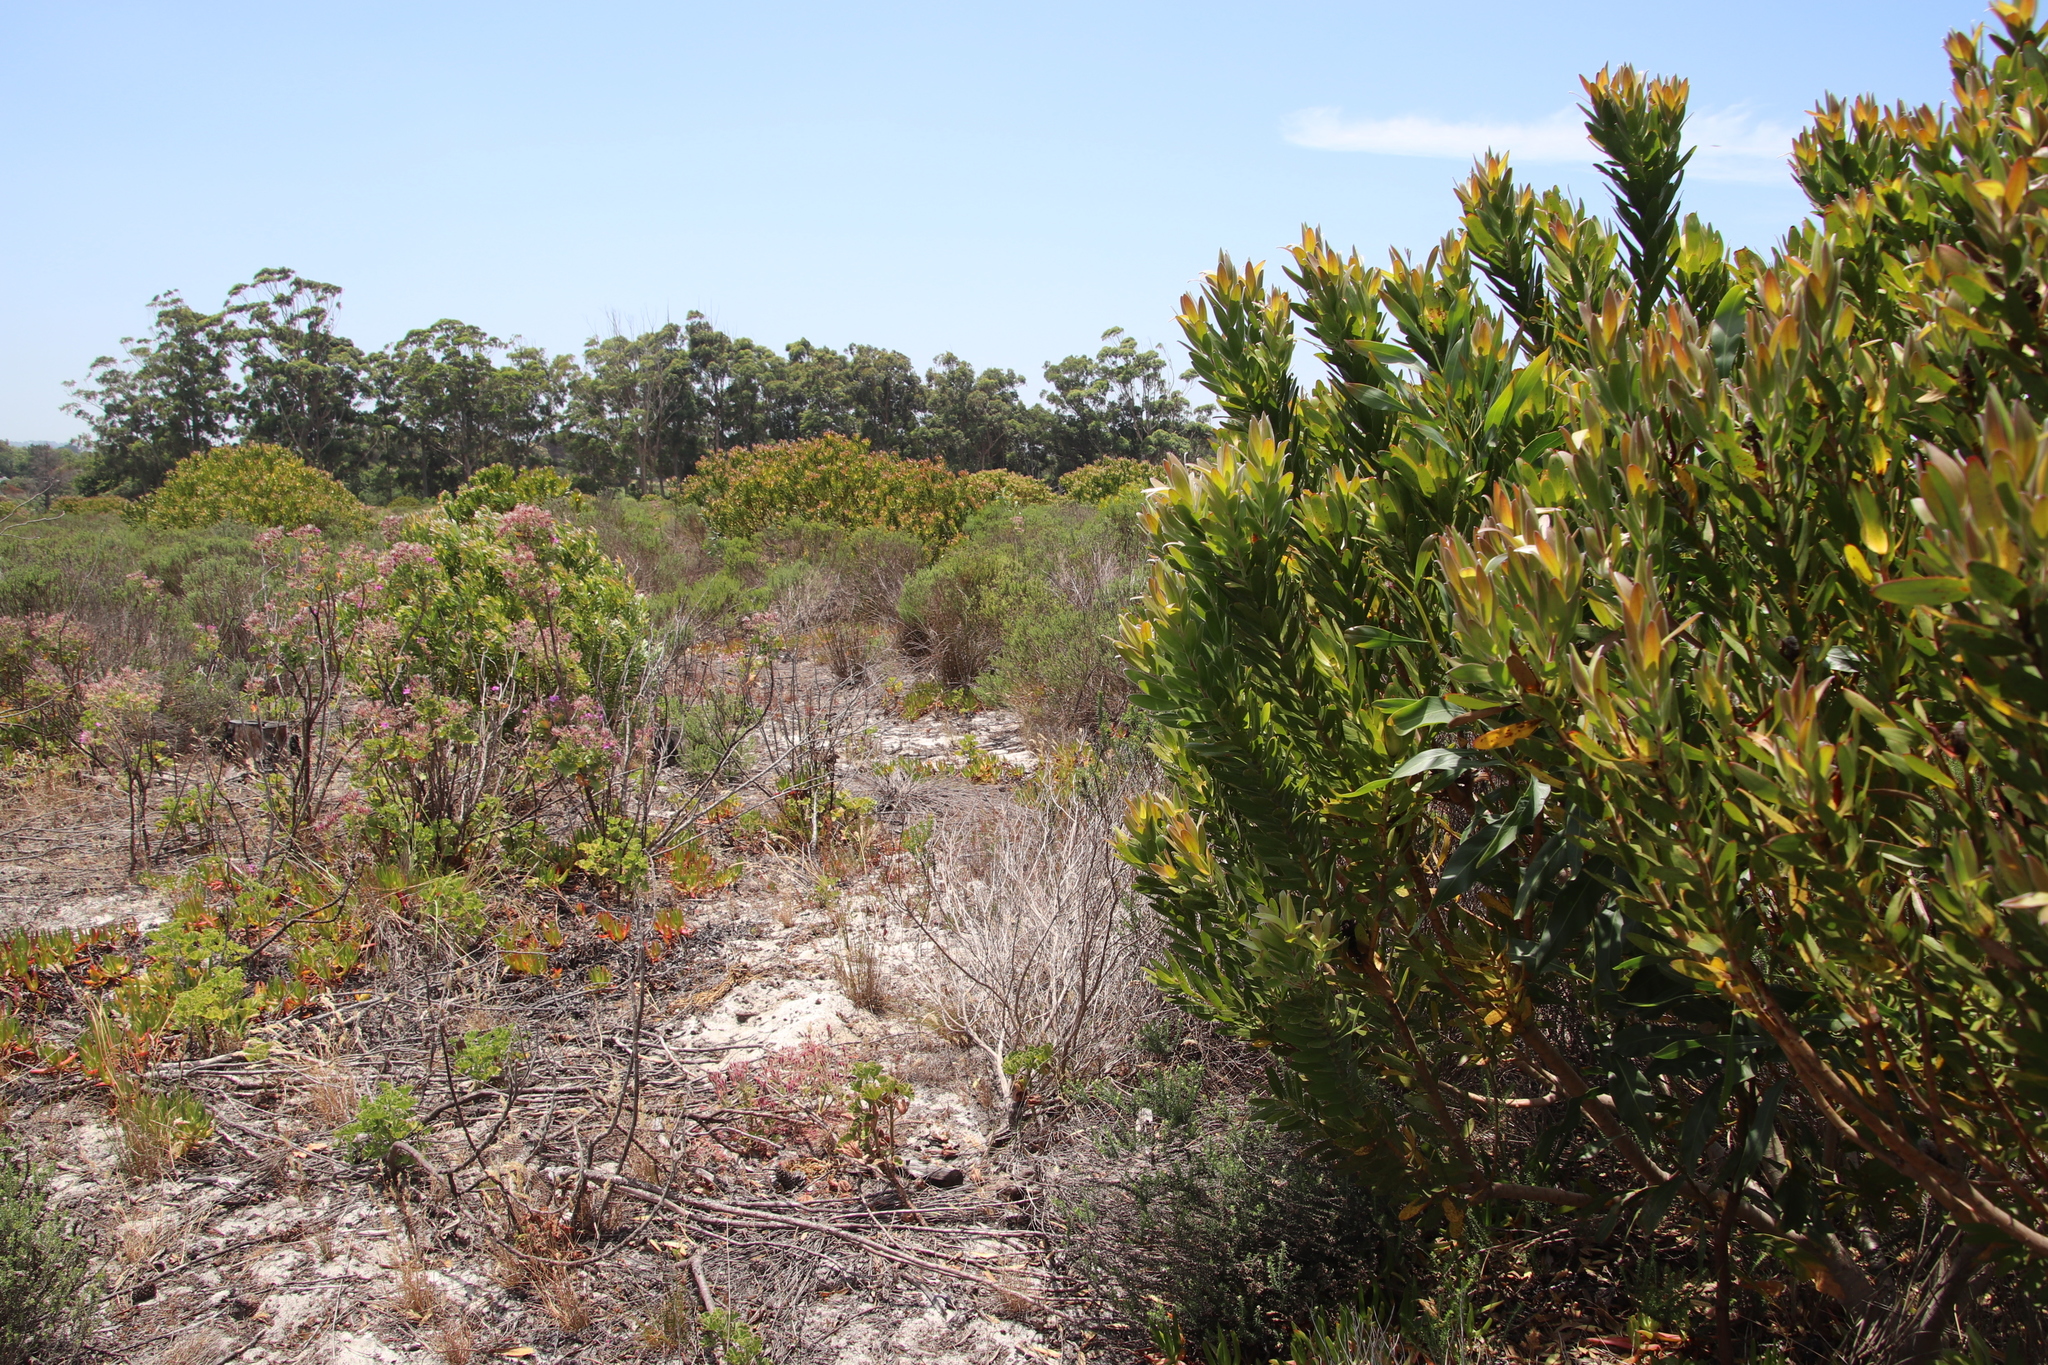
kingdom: Plantae
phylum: Tracheophyta
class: Magnoliopsida
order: Proteales
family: Proteaceae
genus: Leucadendron
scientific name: Leucadendron laureolum
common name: Golden sunshinebush
